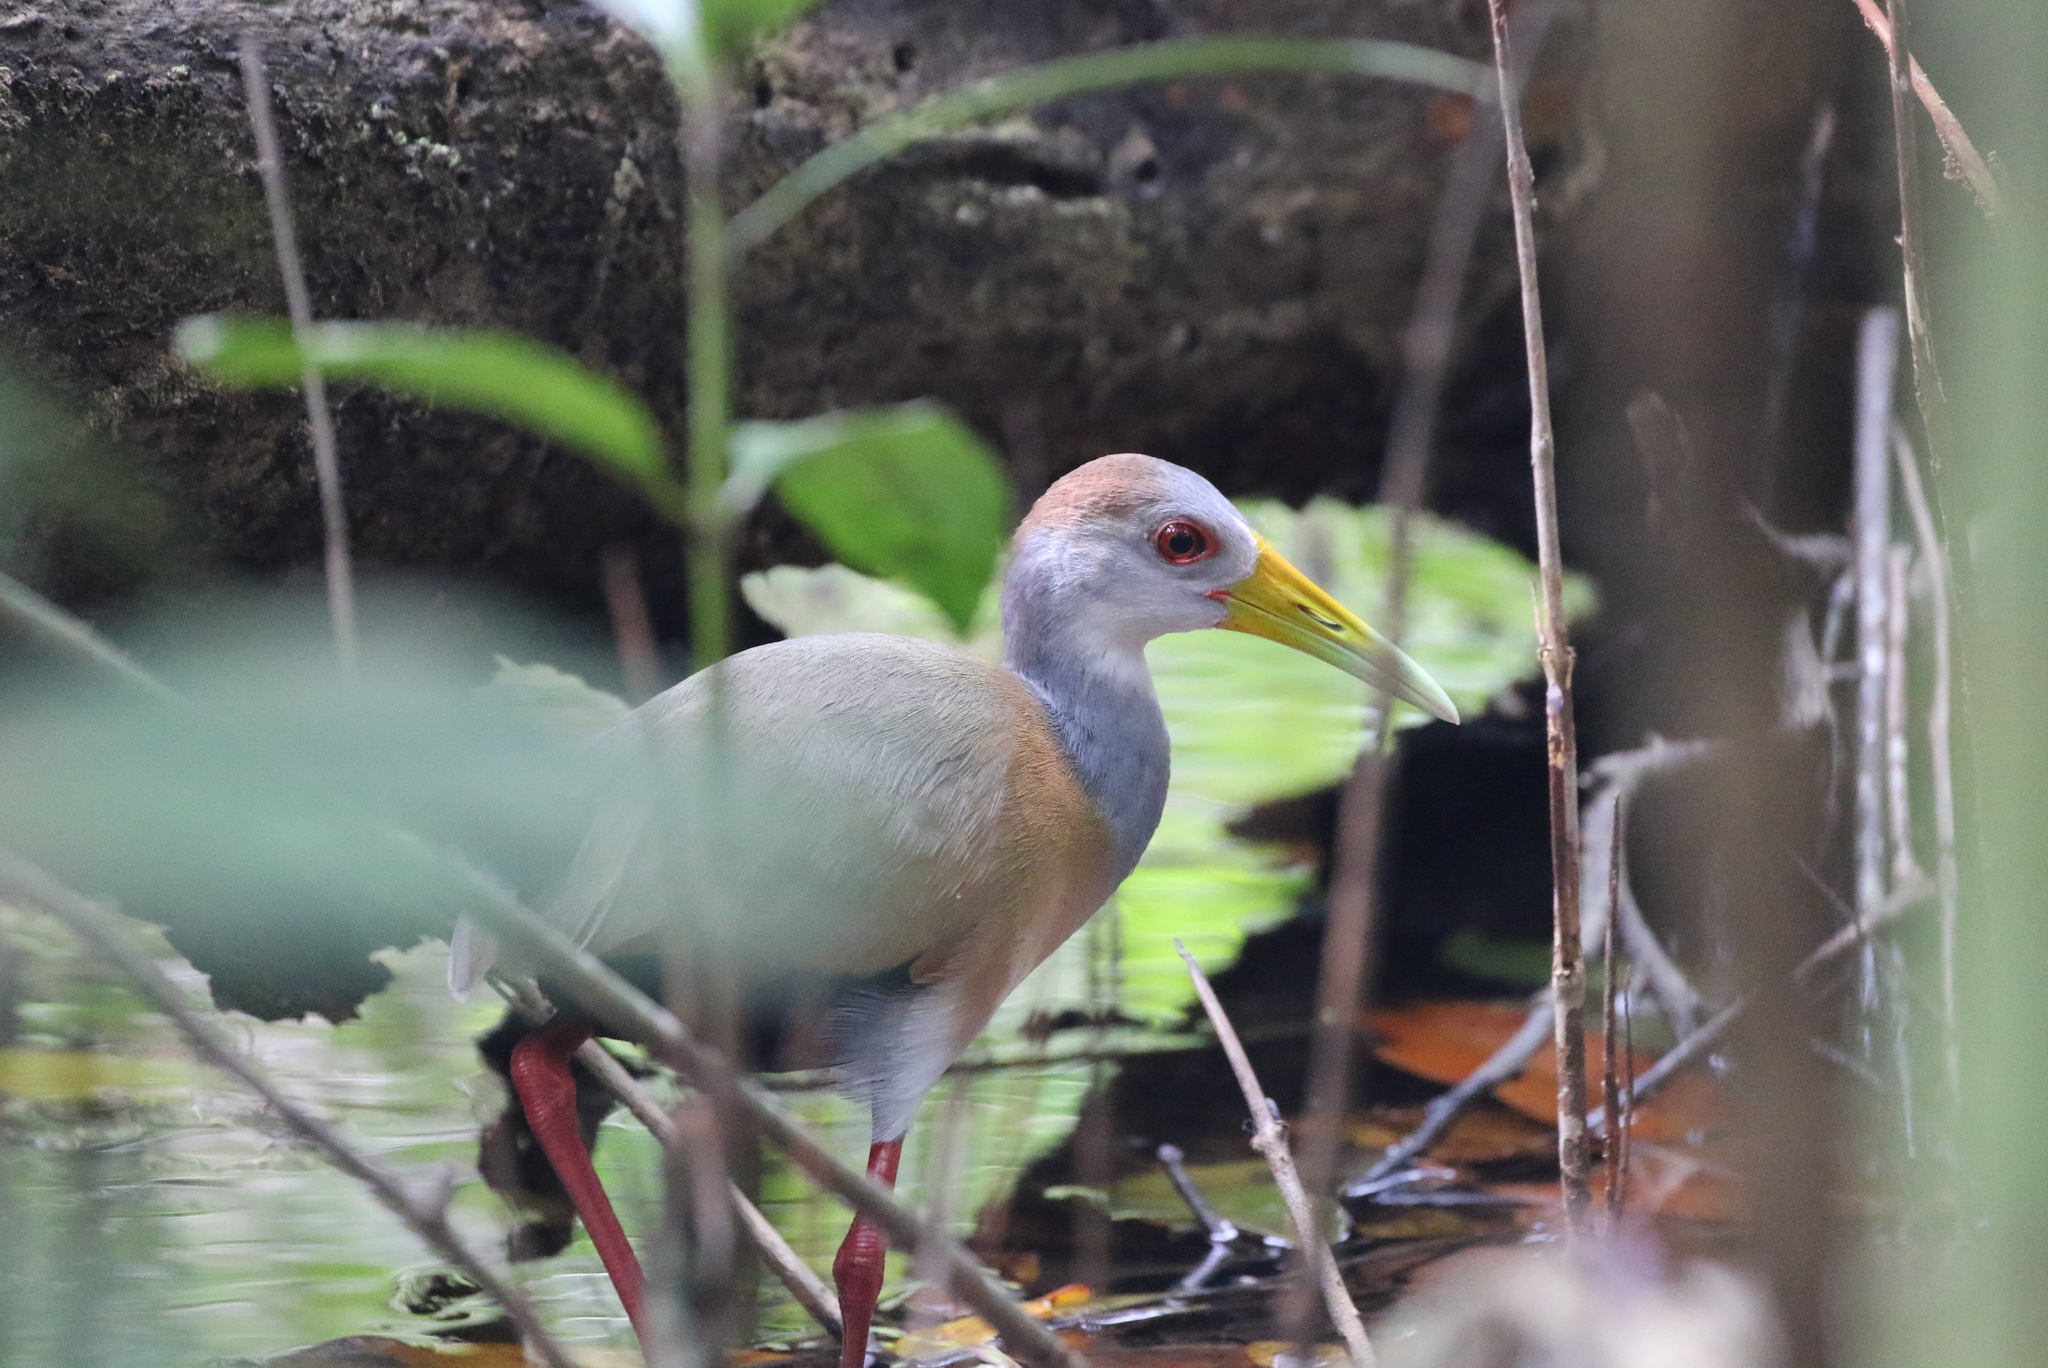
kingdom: Animalia
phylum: Chordata
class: Aves
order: Gruiformes
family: Rallidae
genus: Aramides
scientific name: Aramides albiventris
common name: Russet-naped wood-rail
